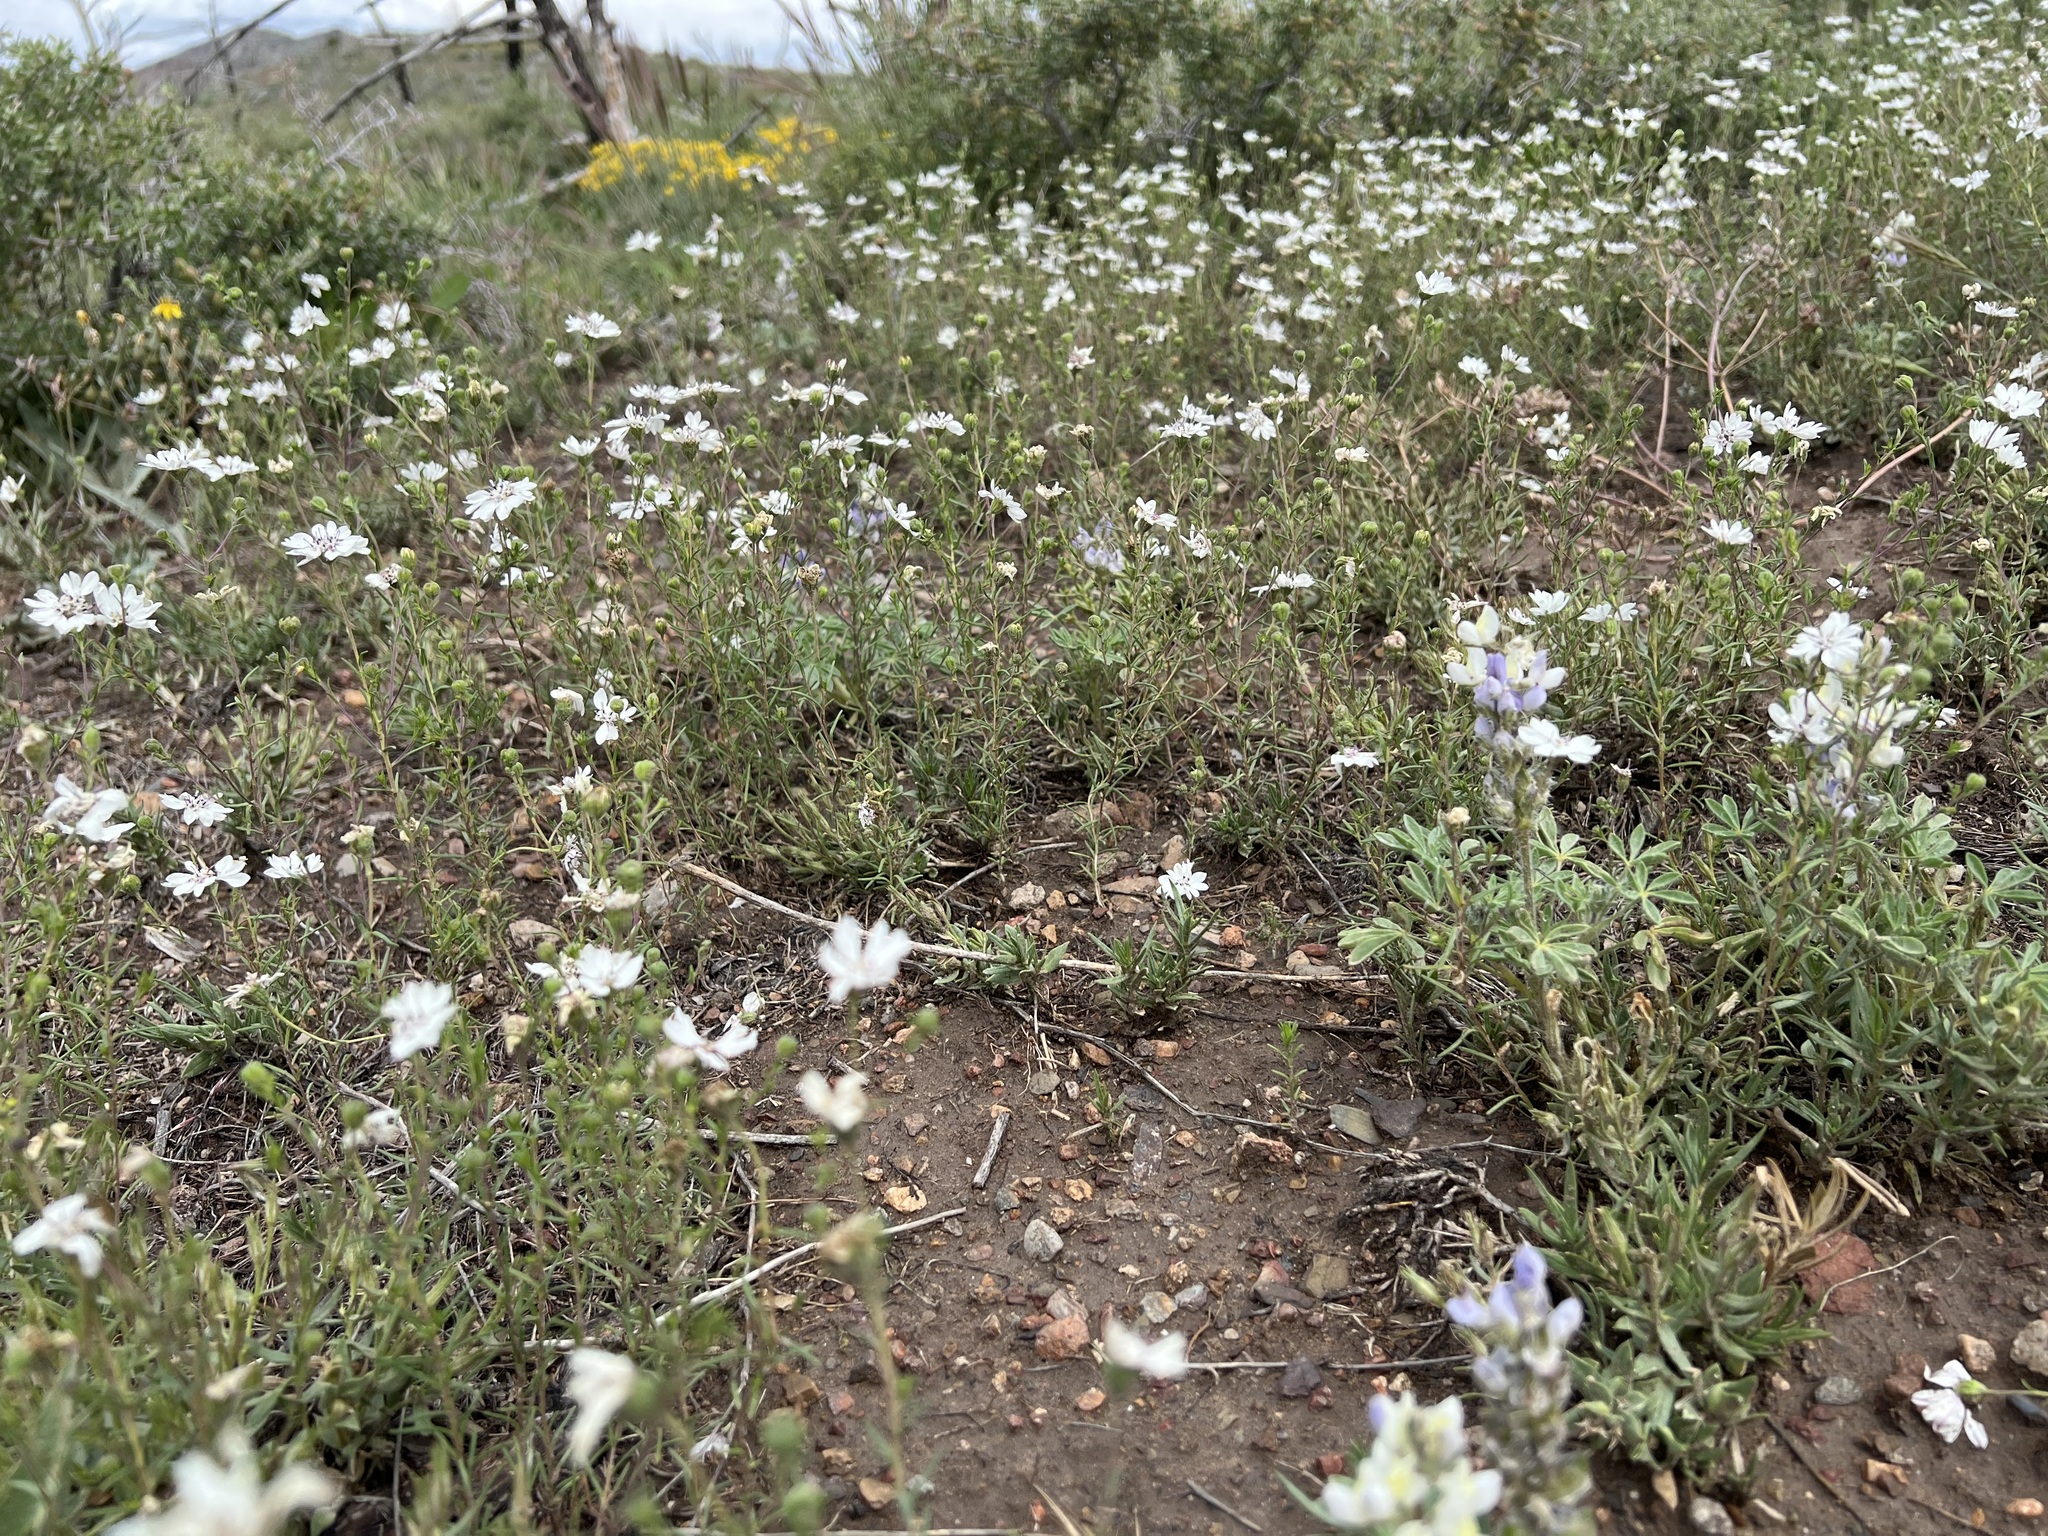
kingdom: Plantae
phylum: Tracheophyta
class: Magnoliopsida
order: Asterales
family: Asteraceae
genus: Blepharipappus
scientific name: Blepharipappus scaber
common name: Rough blepharipappus
